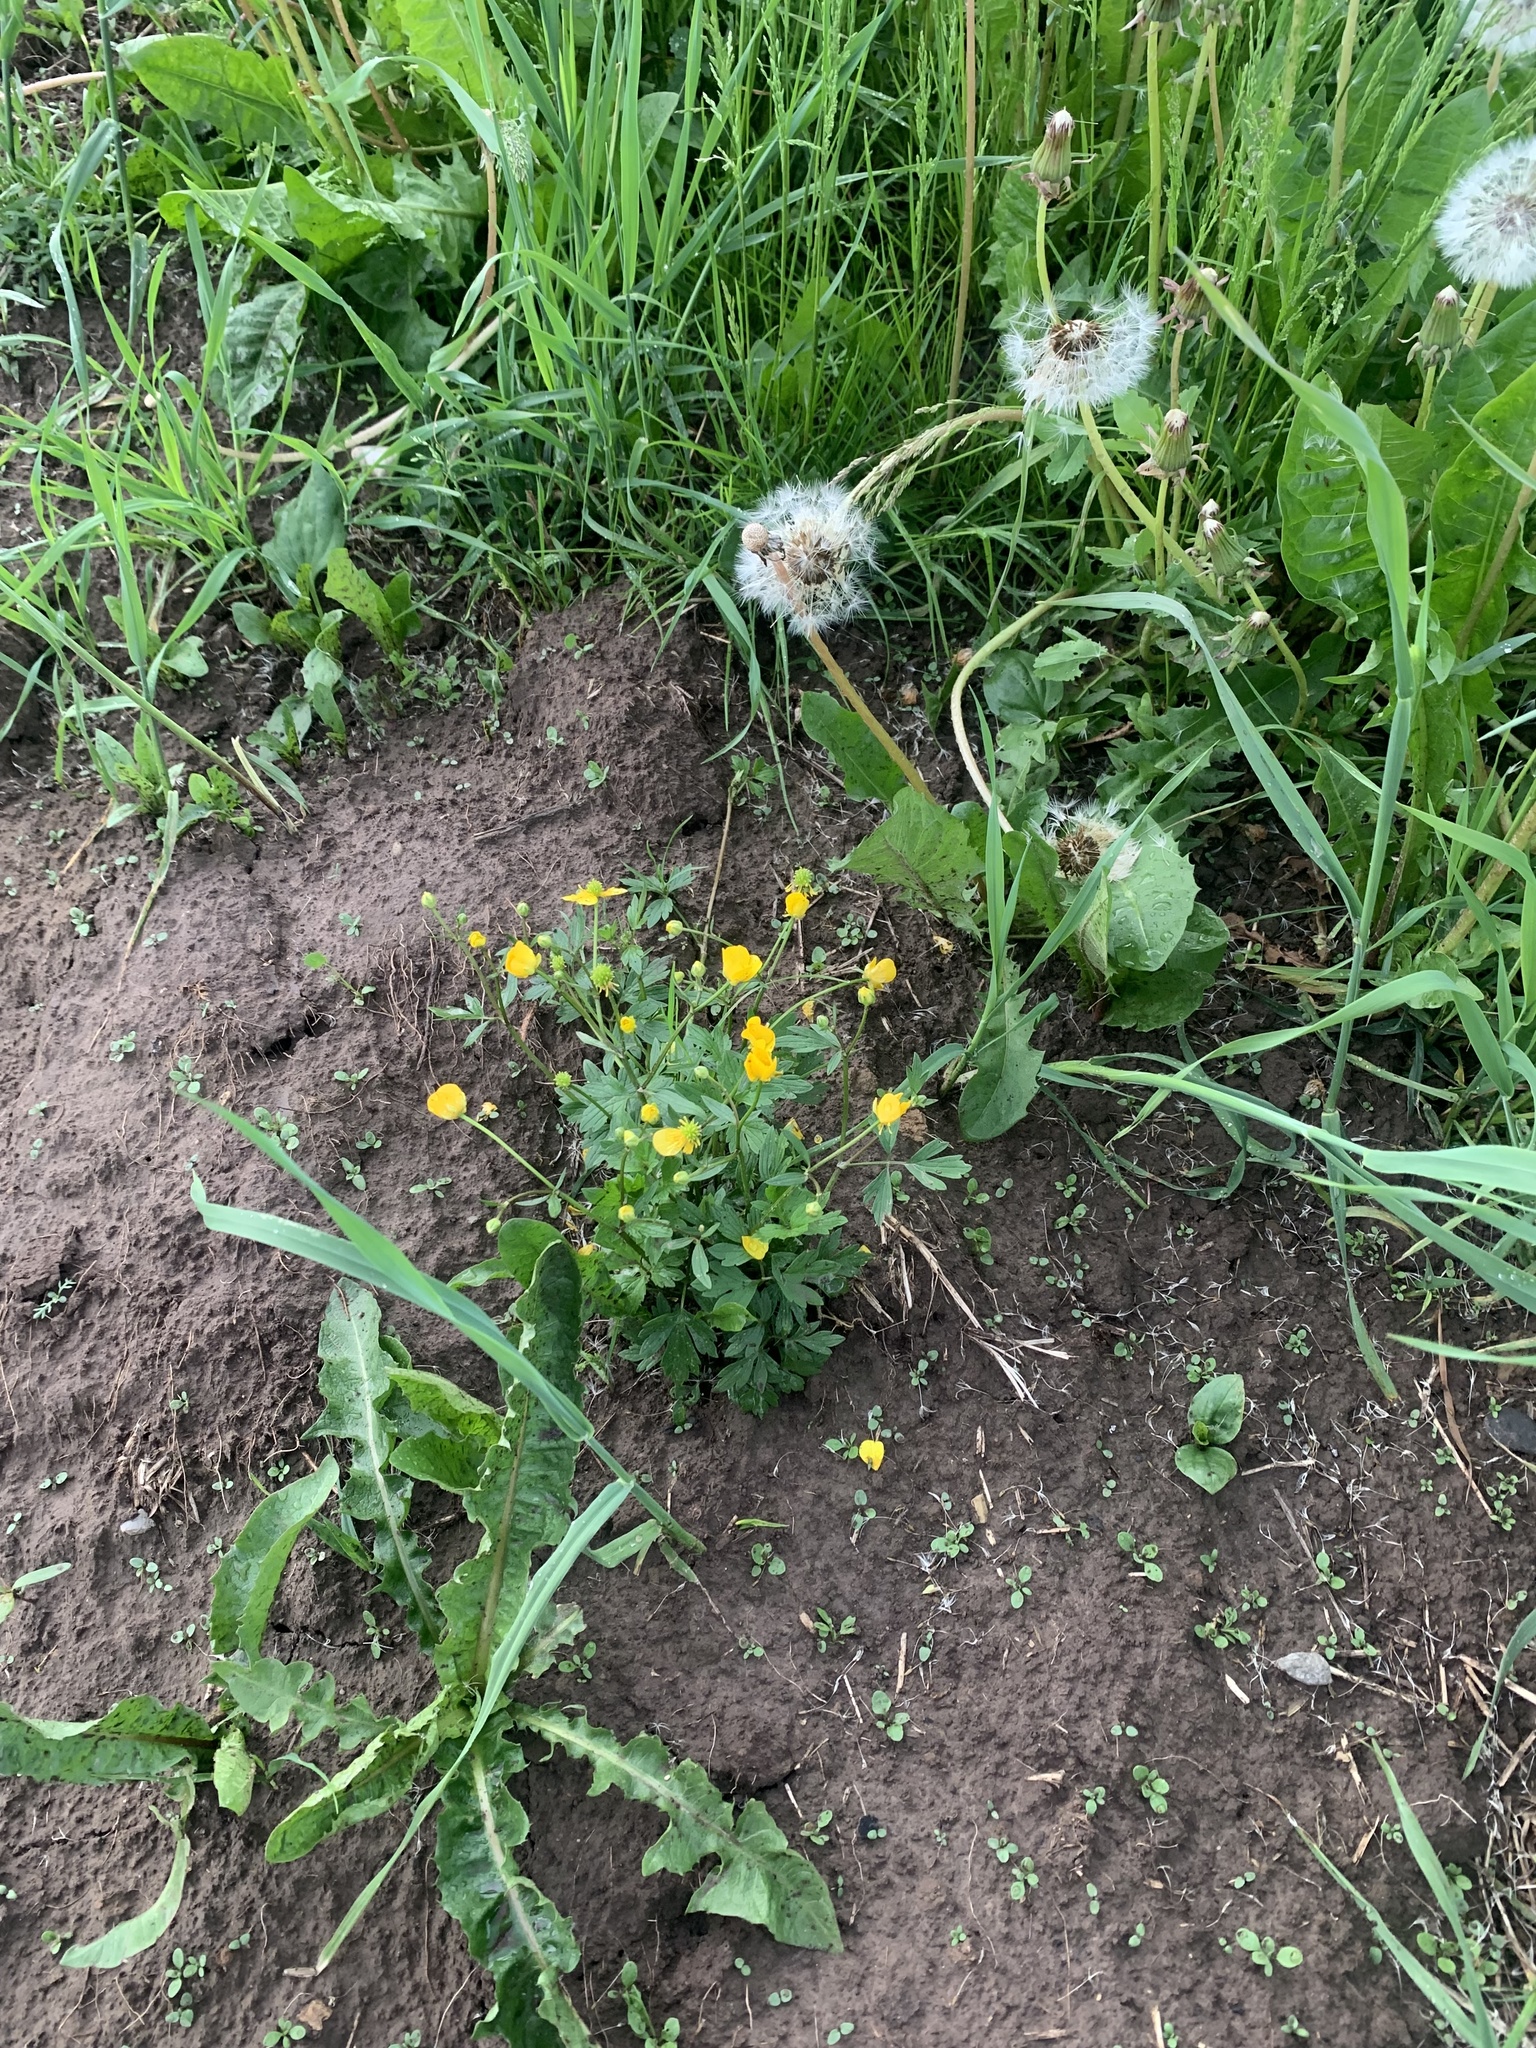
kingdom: Plantae
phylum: Tracheophyta
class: Magnoliopsida
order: Ranunculales
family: Ranunculaceae
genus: Ranunculus
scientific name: Ranunculus repens
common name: Creeping buttercup
